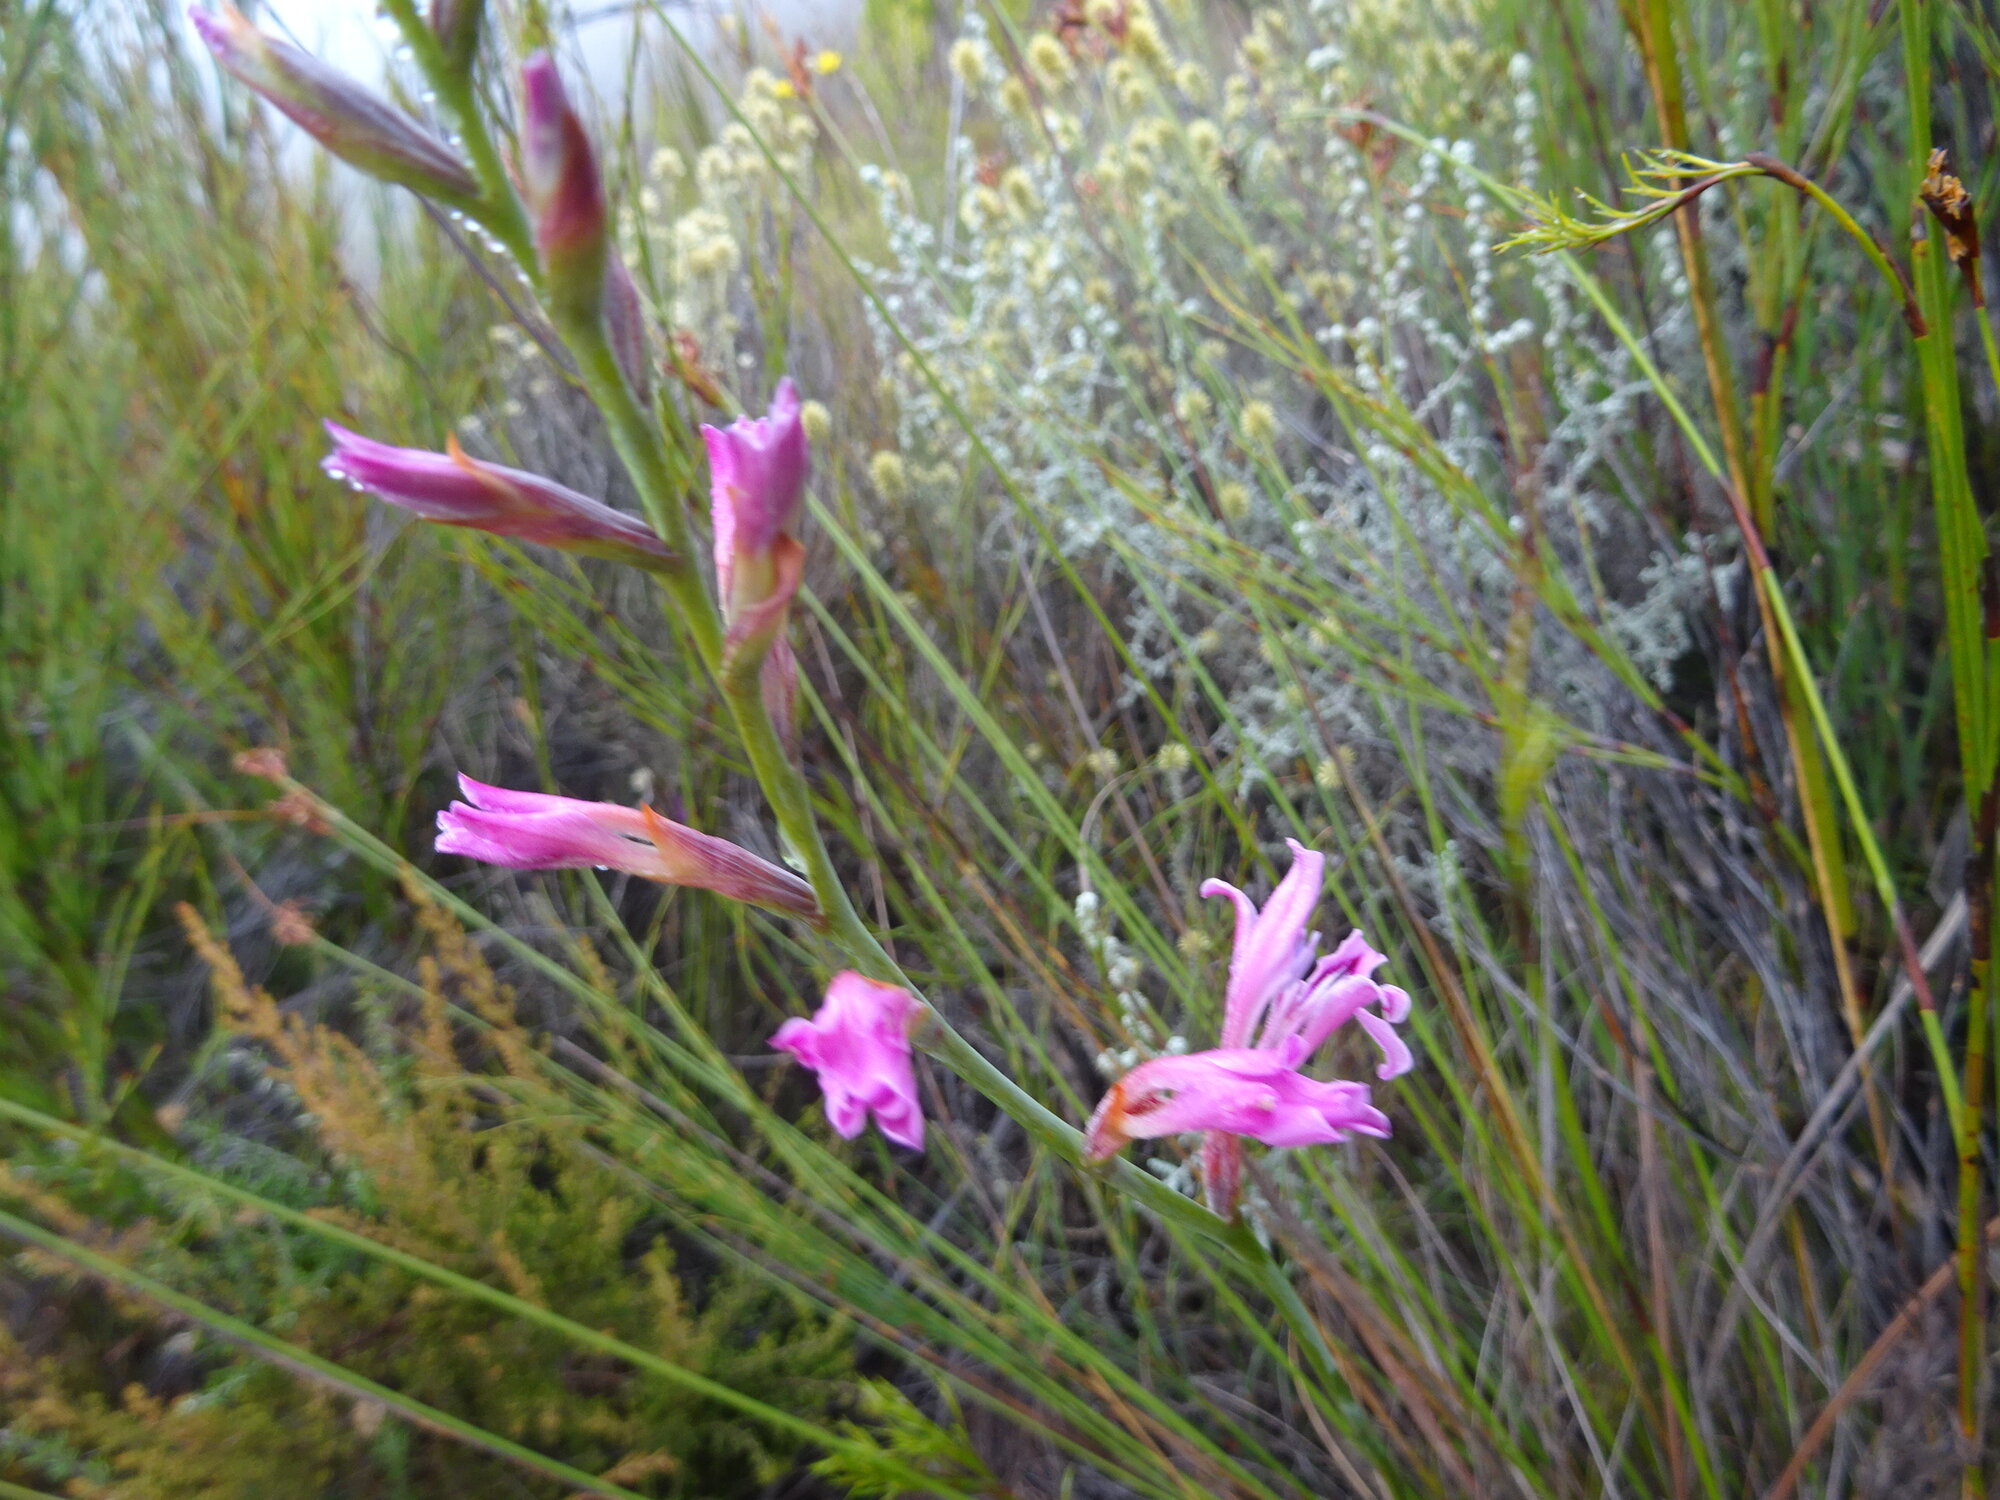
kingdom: Plantae
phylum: Tracheophyta
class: Liliopsida
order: Asparagales
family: Iridaceae
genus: Tritoniopsis
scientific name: Tritoniopsis lata
